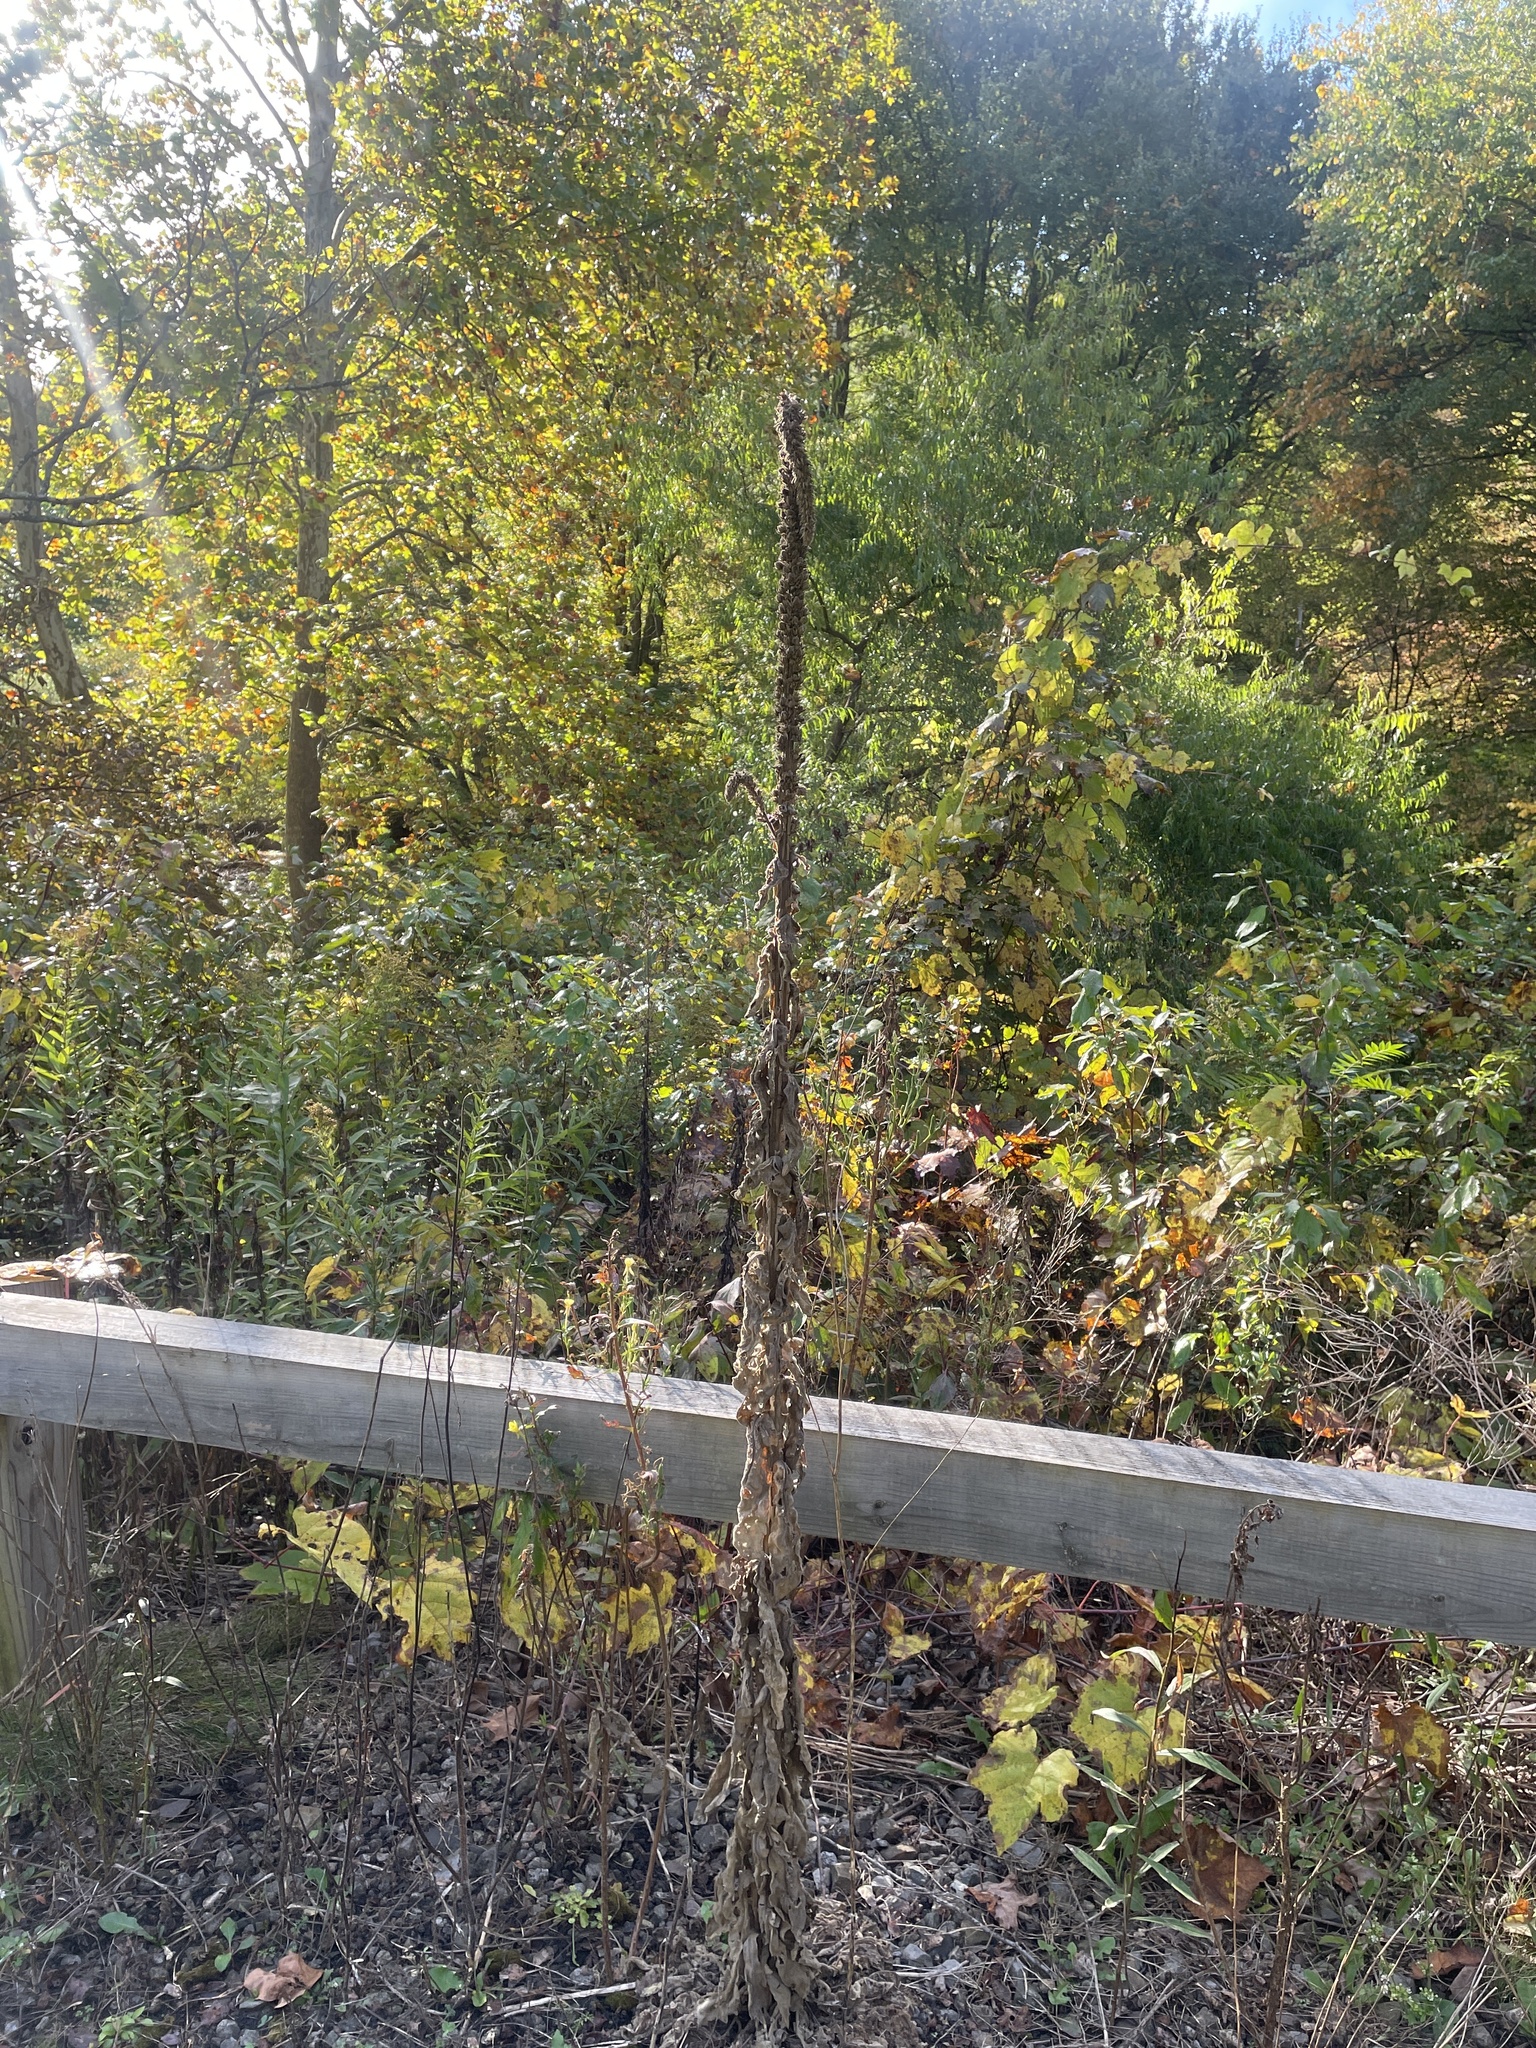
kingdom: Plantae
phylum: Tracheophyta
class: Magnoliopsida
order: Lamiales
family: Scrophulariaceae
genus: Verbascum
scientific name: Verbascum thapsus
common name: Common mullein
